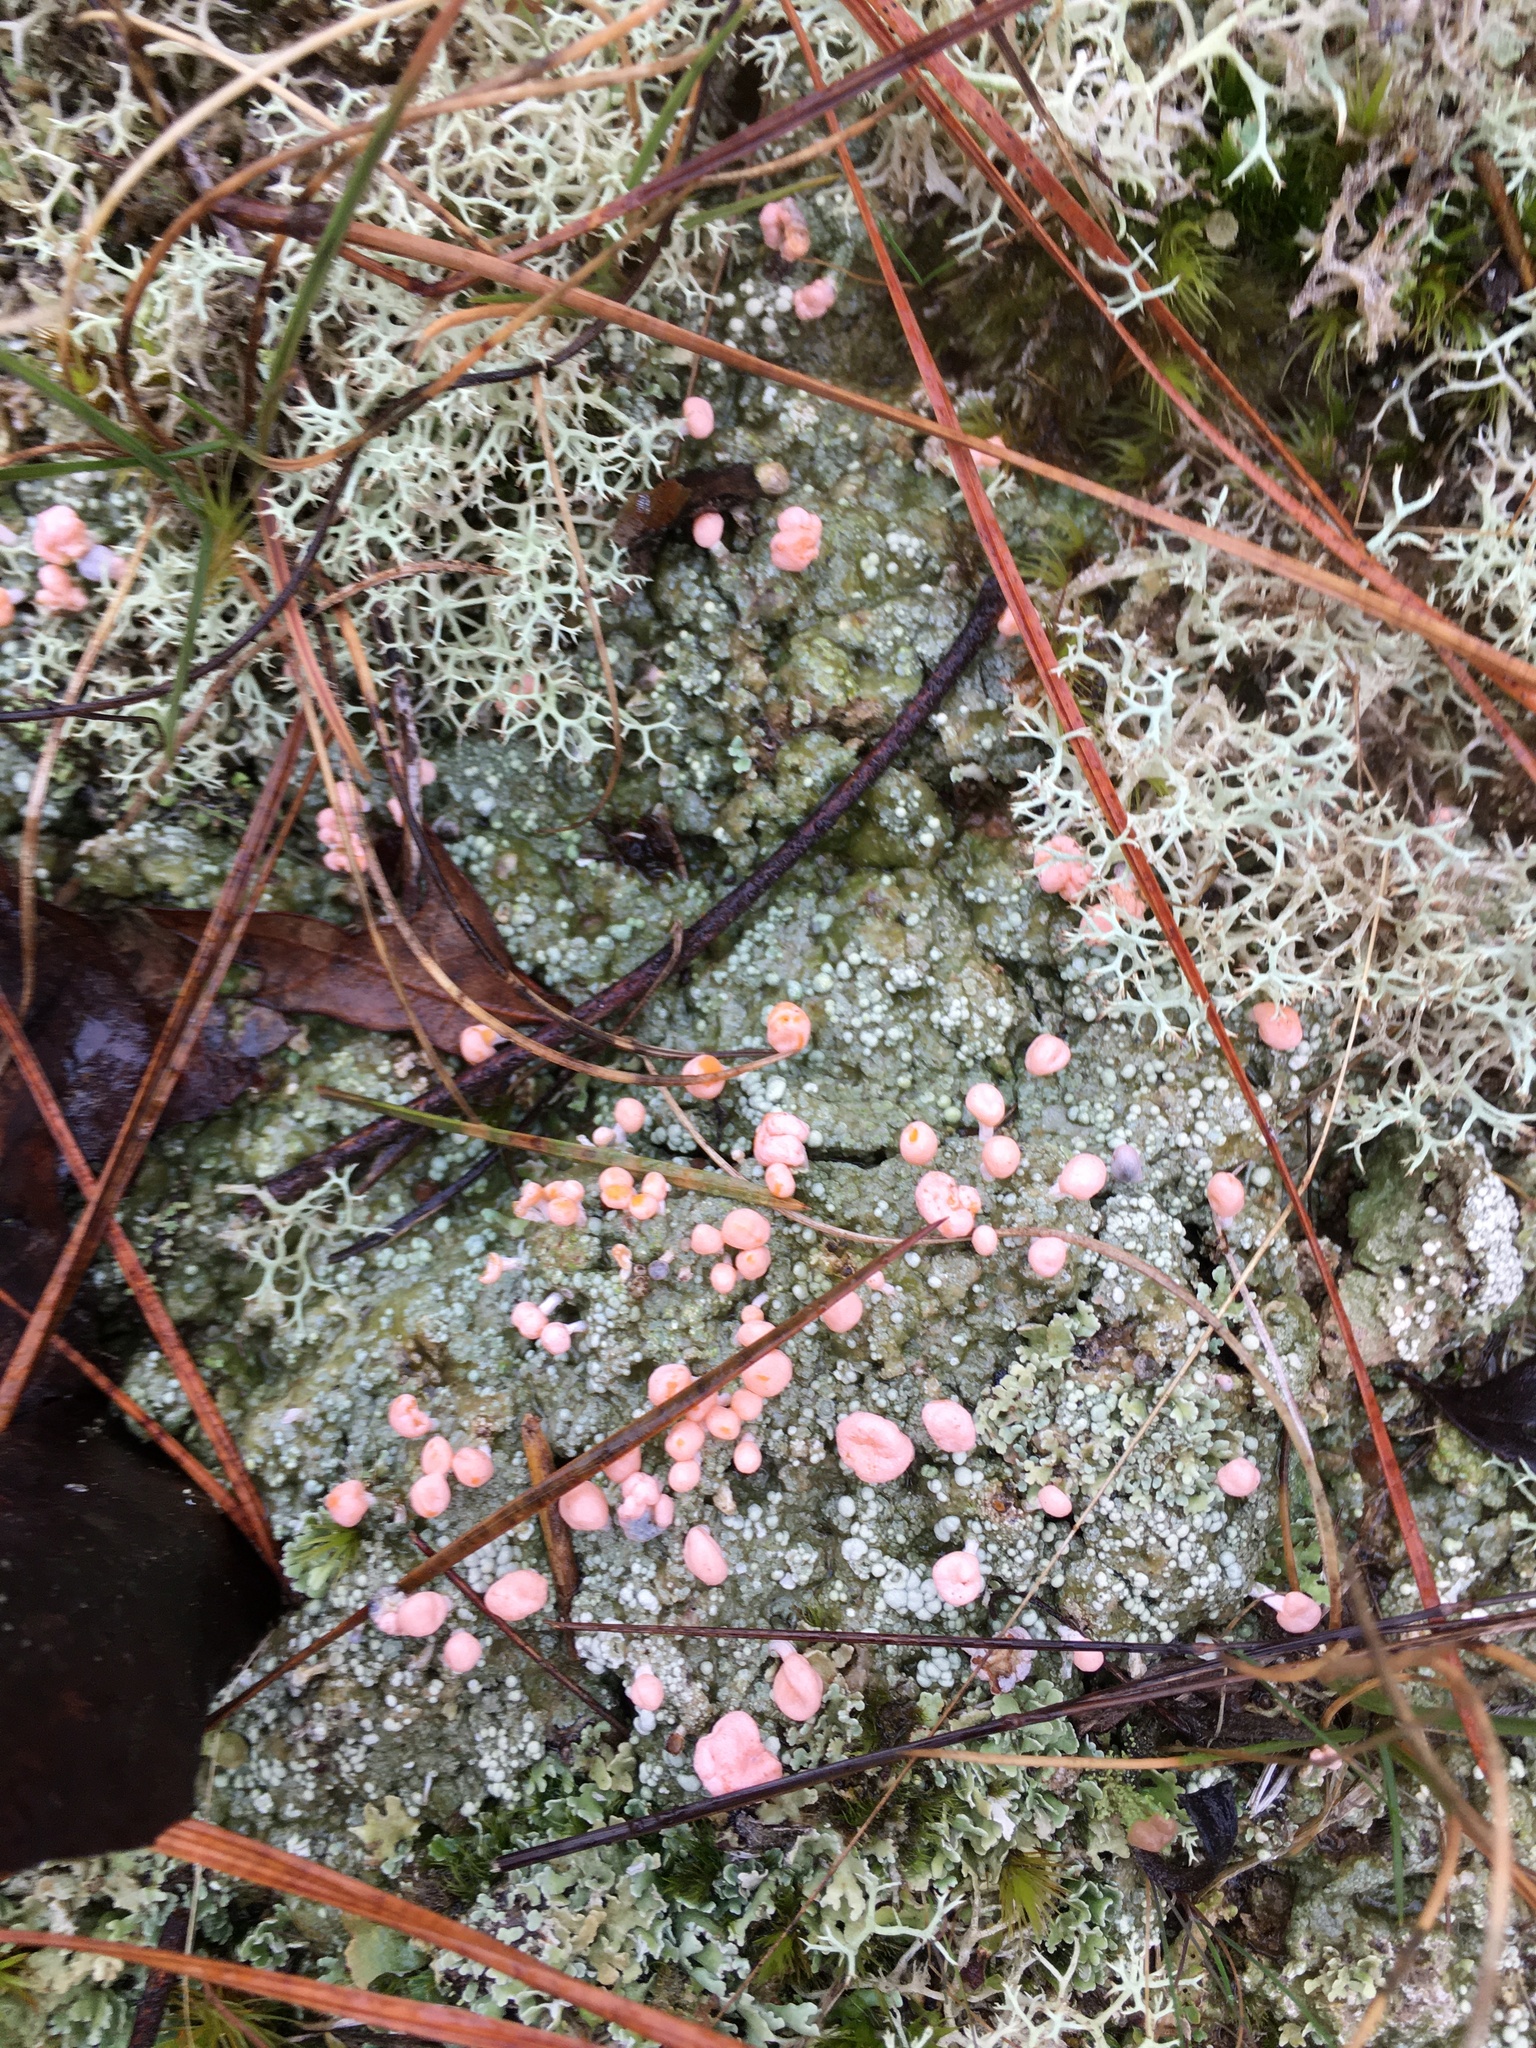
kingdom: Fungi
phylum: Ascomycota
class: Lecanoromycetes
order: Pertusariales
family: Icmadophilaceae
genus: Dibaeis
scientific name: Dibaeis baeomyces
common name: Pink earth lichen
